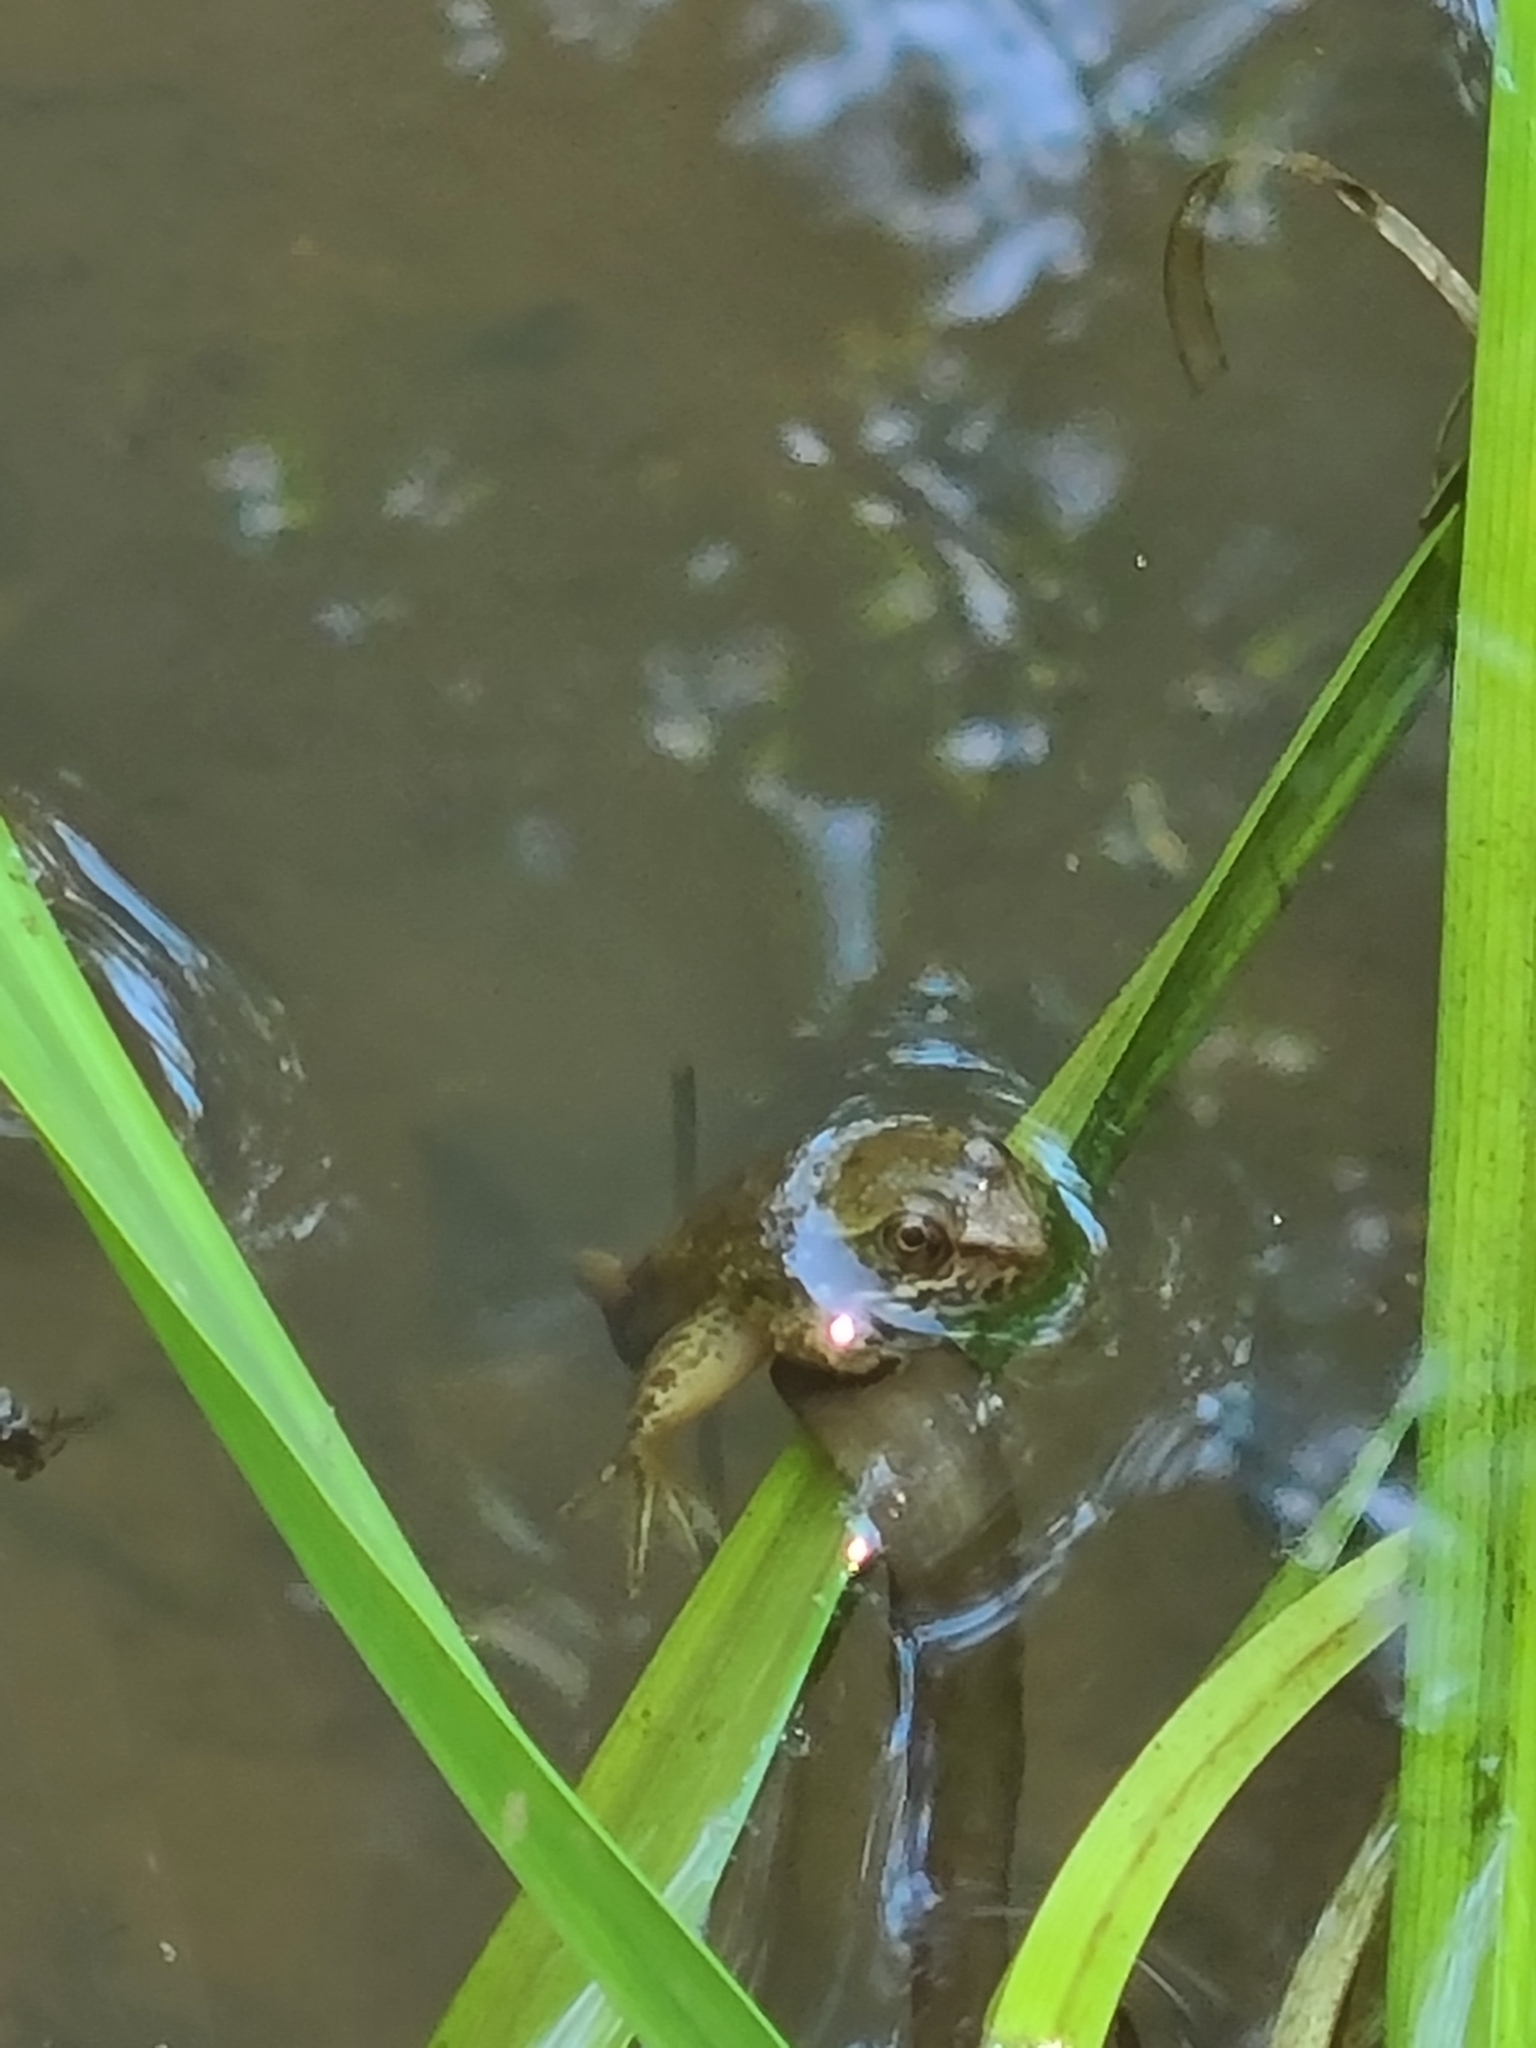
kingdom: Animalia
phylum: Chordata
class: Amphibia
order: Anura
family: Ranidae
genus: Lithobates
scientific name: Lithobates clamitans
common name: Green frog
